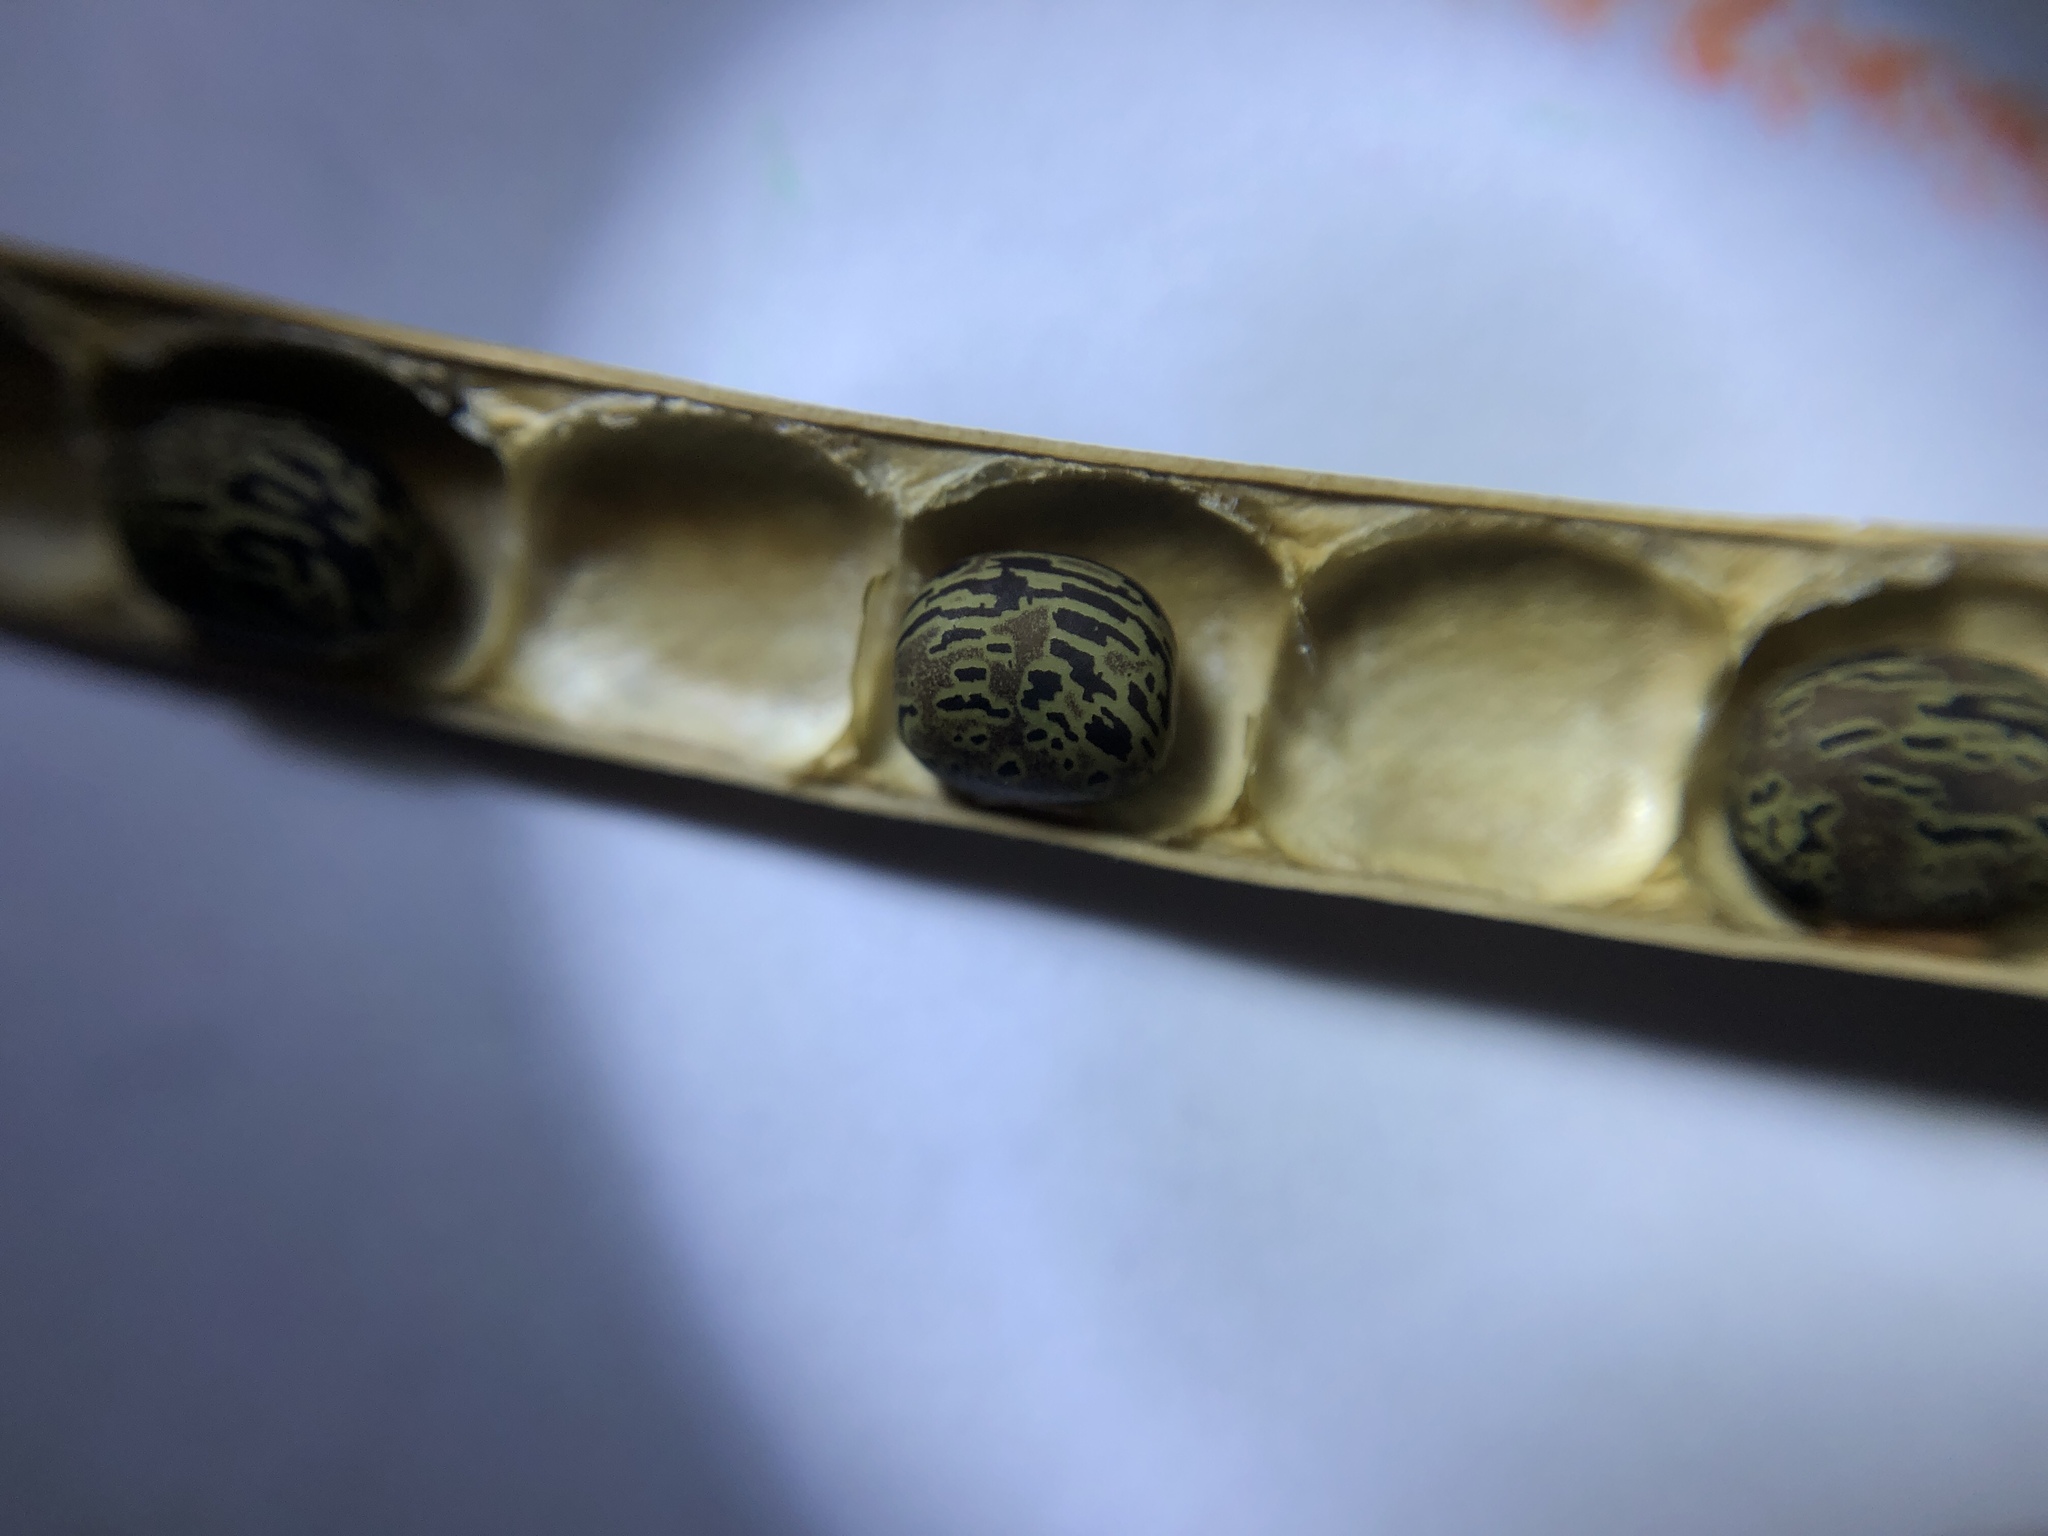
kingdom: Plantae
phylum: Tracheophyta
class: Magnoliopsida
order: Fabales
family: Fabaceae
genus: Centrosema
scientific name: Centrosema pubescens
